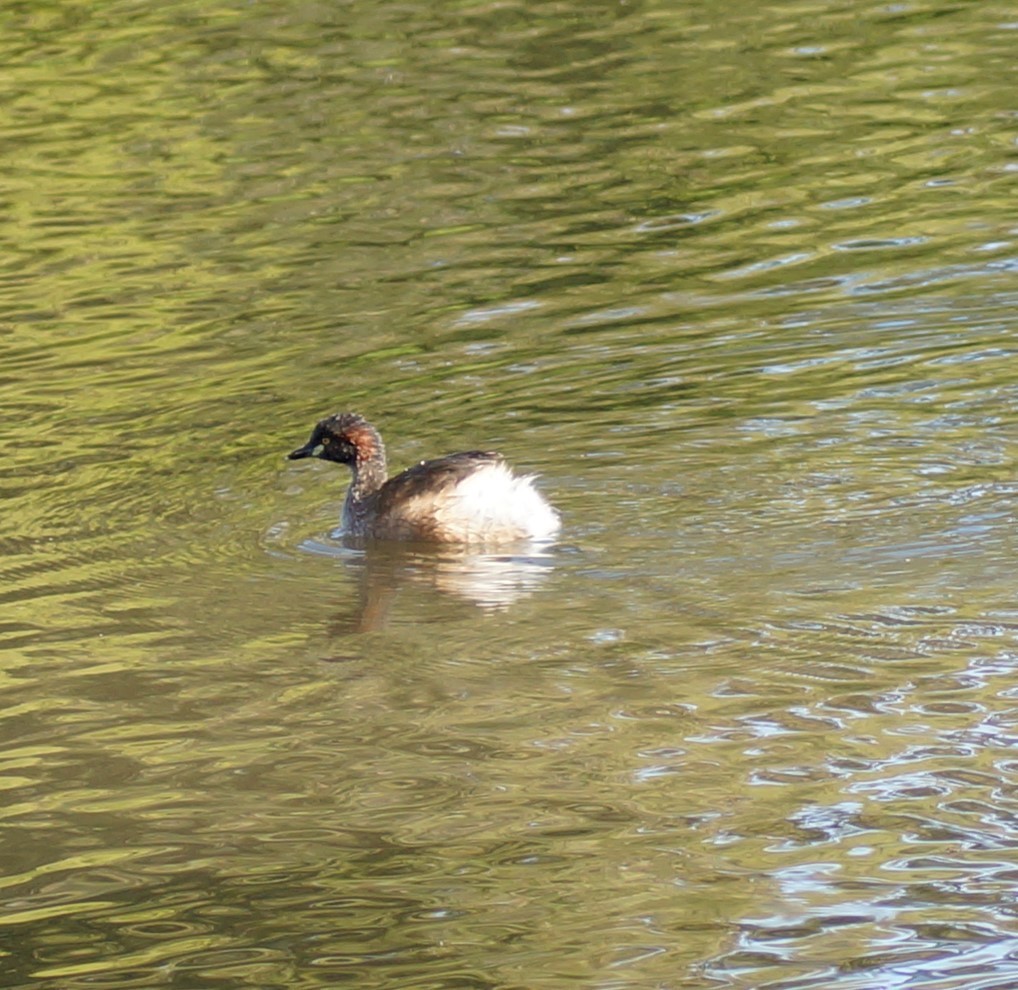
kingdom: Animalia
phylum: Chordata
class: Aves
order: Podicipediformes
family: Podicipedidae
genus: Tachybaptus
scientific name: Tachybaptus novaehollandiae
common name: Australasian grebe
